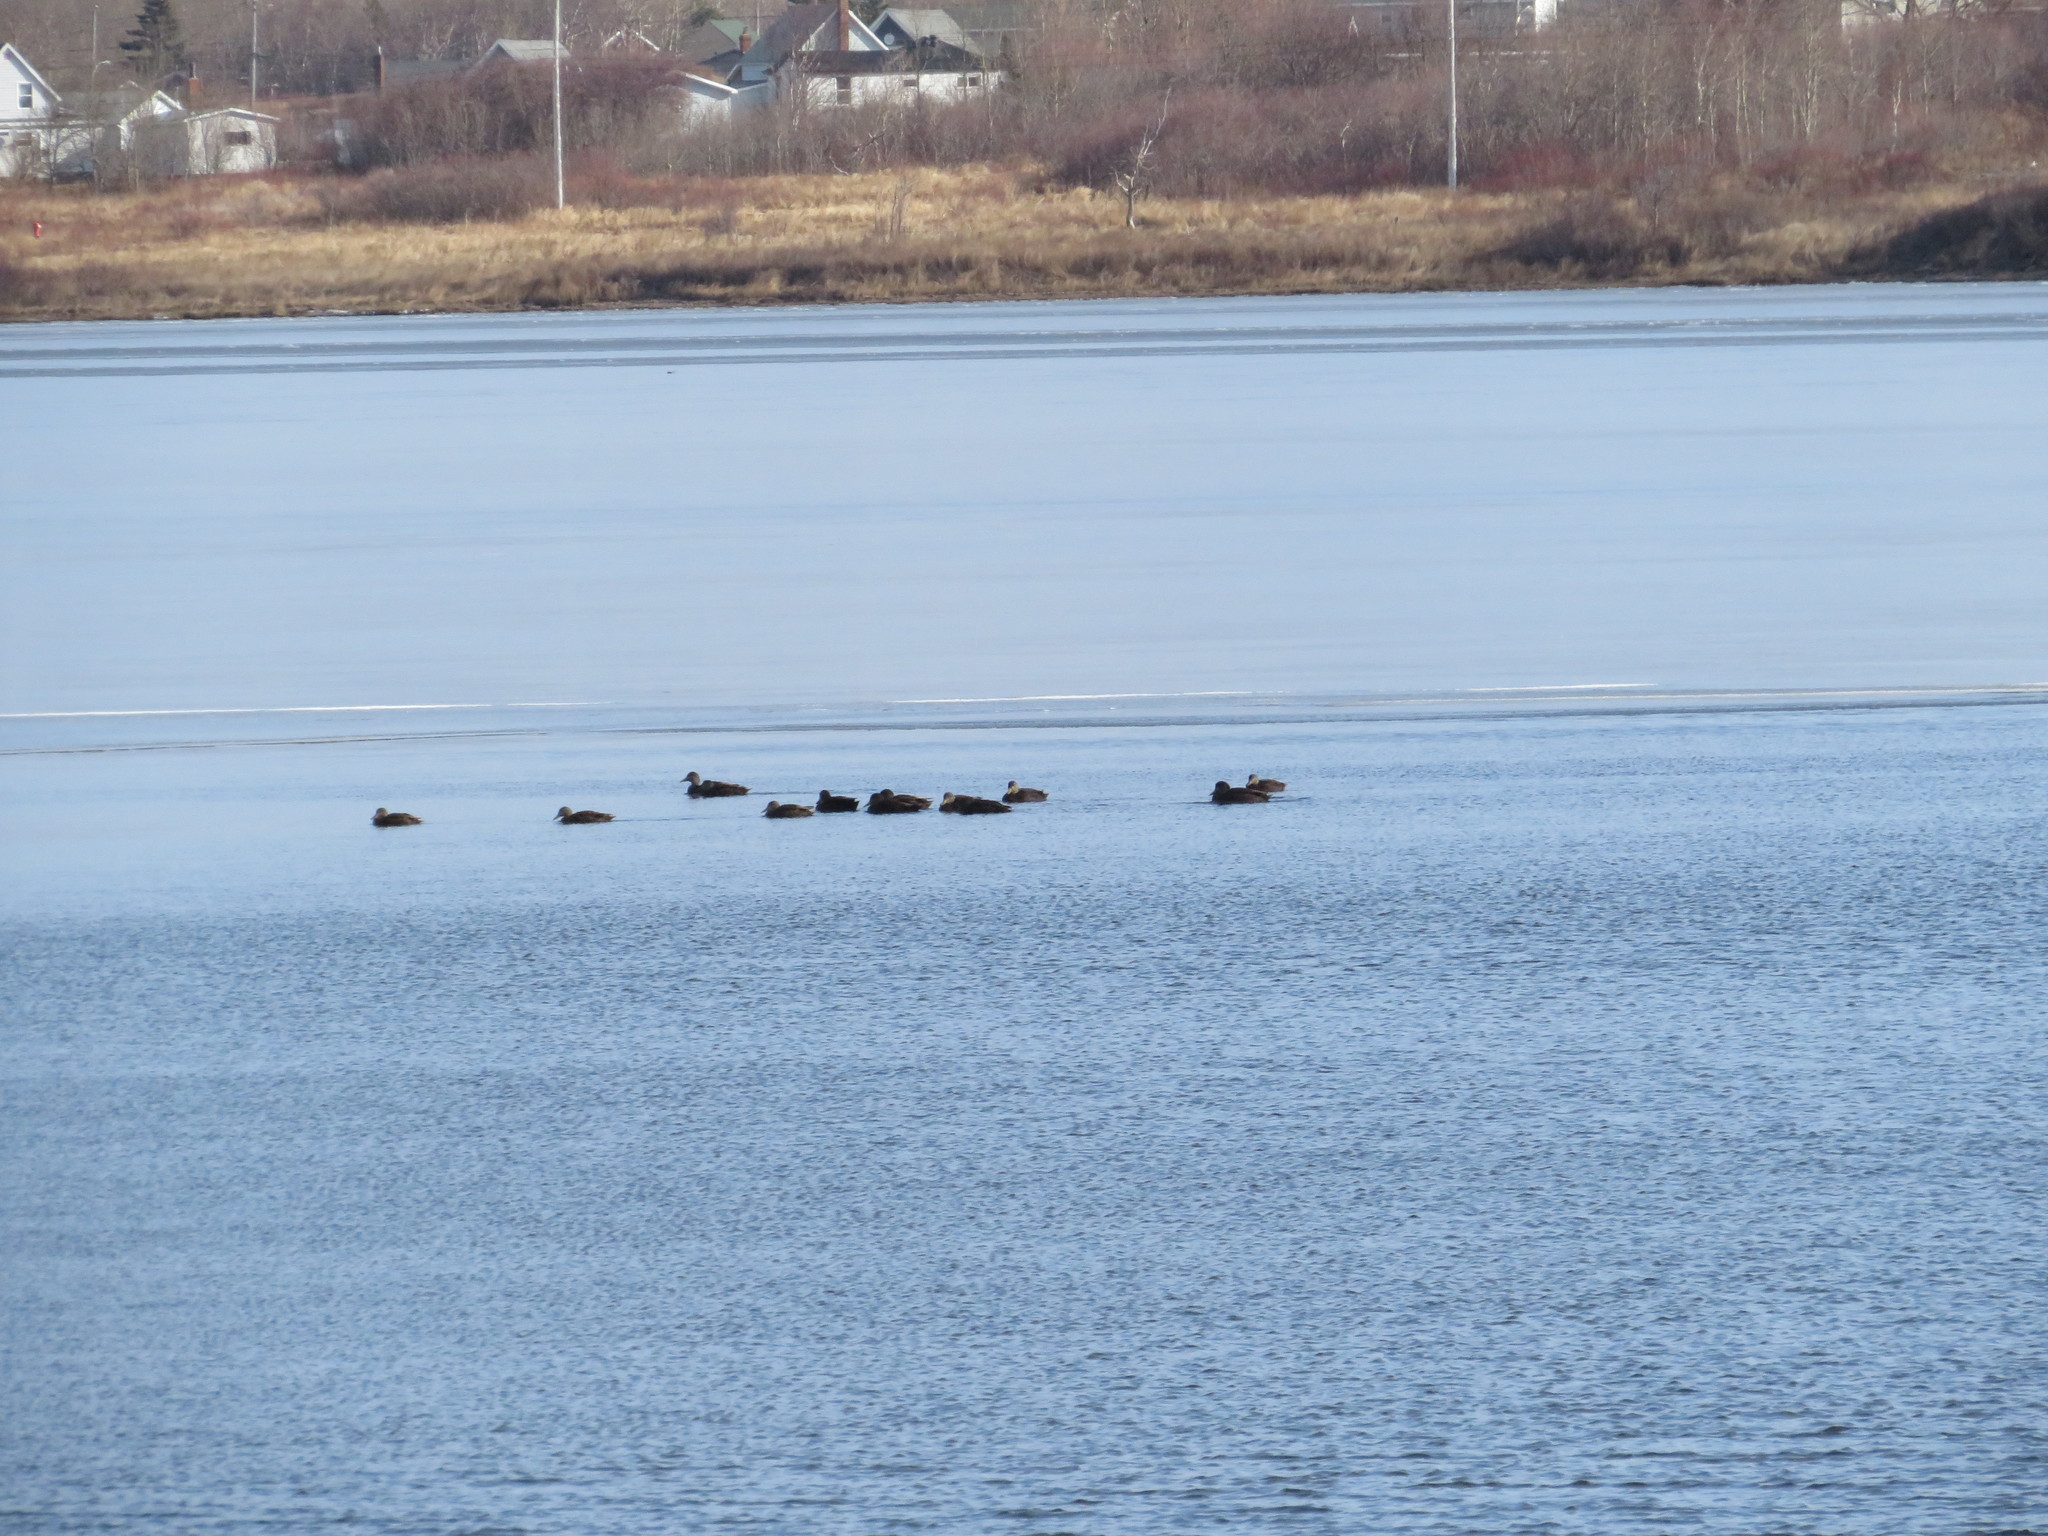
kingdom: Animalia
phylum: Chordata
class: Aves
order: Anseriformes
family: Anatidae
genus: Anas
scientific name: Anas rubripes
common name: American black duck
